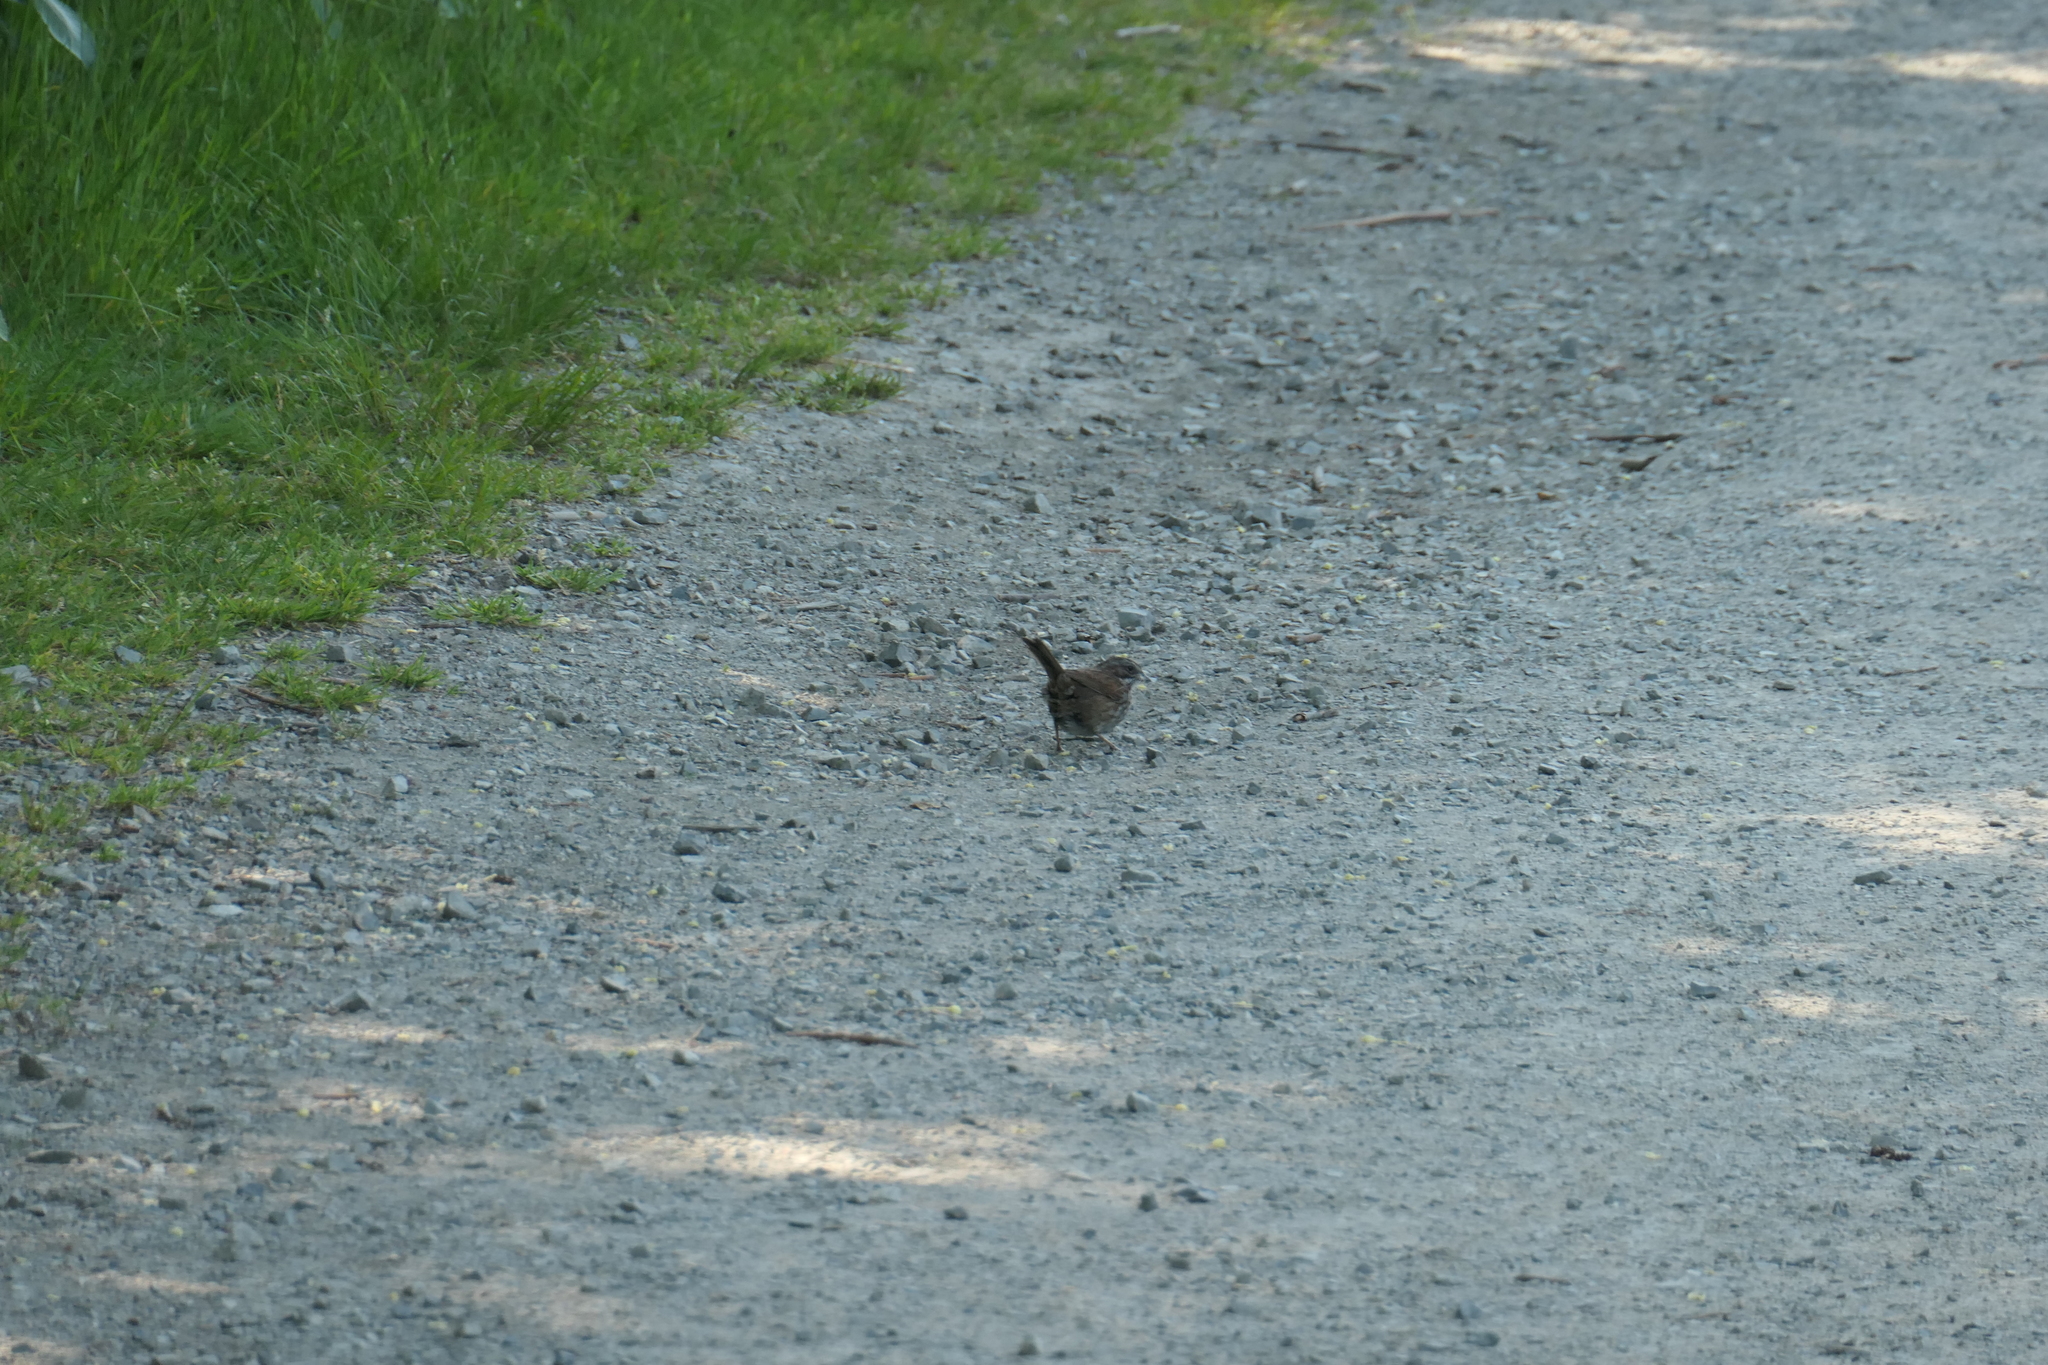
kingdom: Animalia
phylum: Chordata
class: Aves
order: Passeriformes
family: Passerellidae
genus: Melospiza
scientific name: Melospiza melodia
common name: Song sparrow
